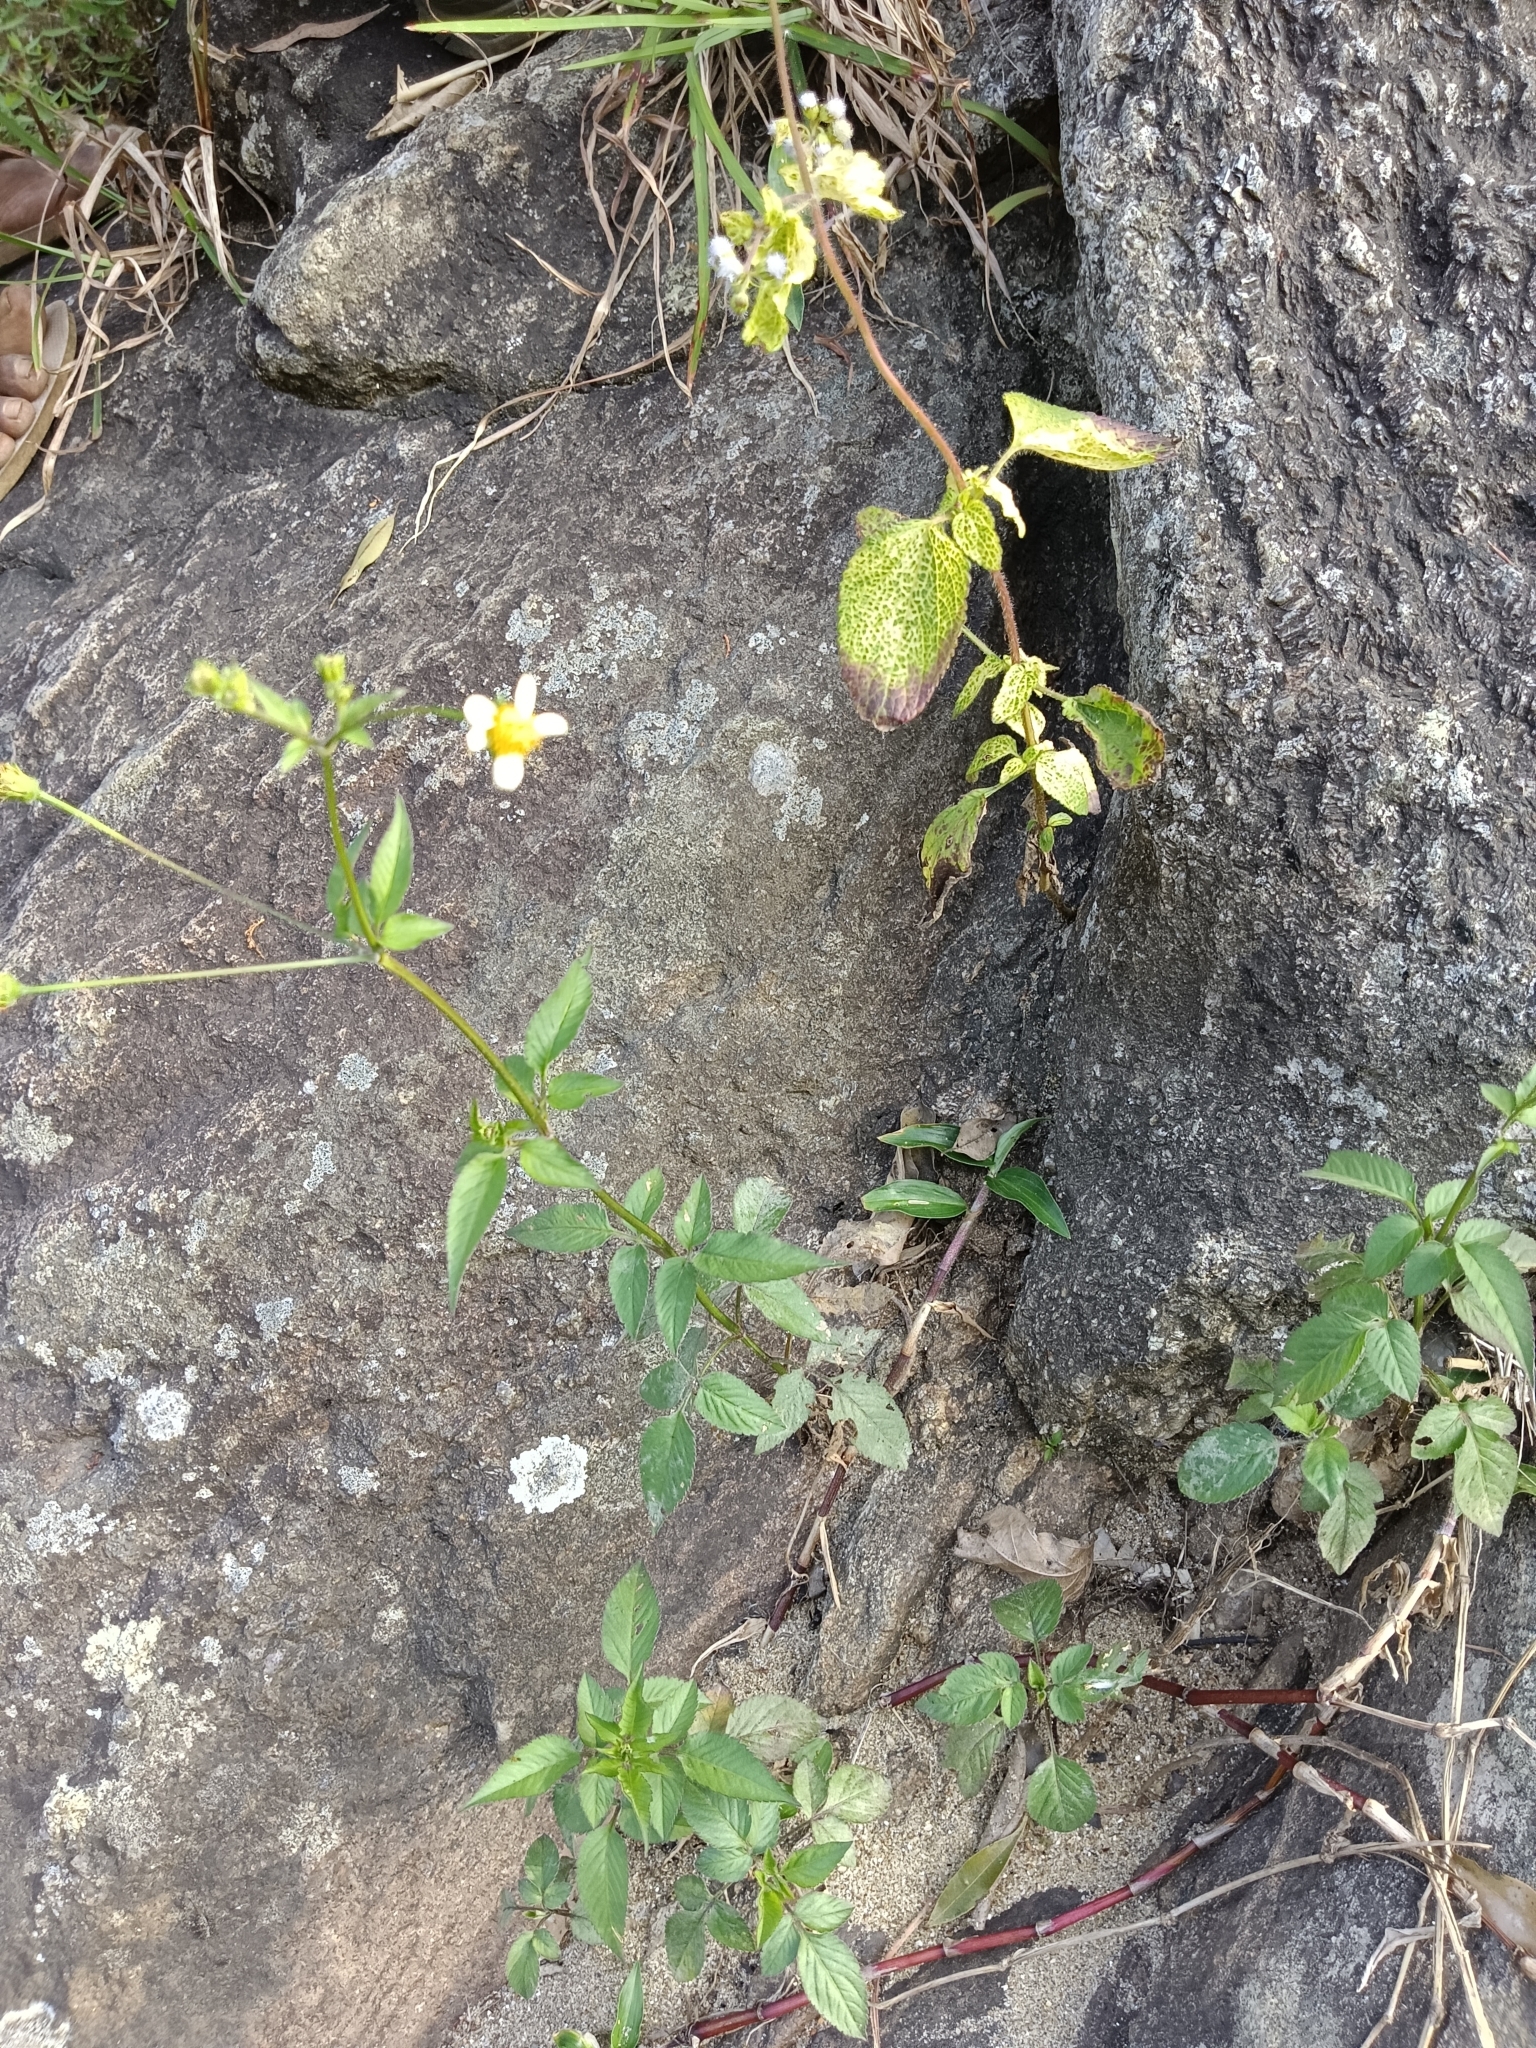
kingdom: Plantae
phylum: Tracheophyta
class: Magnoliopsida
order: Asterales
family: Asteraceae
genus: Bidens
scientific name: Bidens alba
